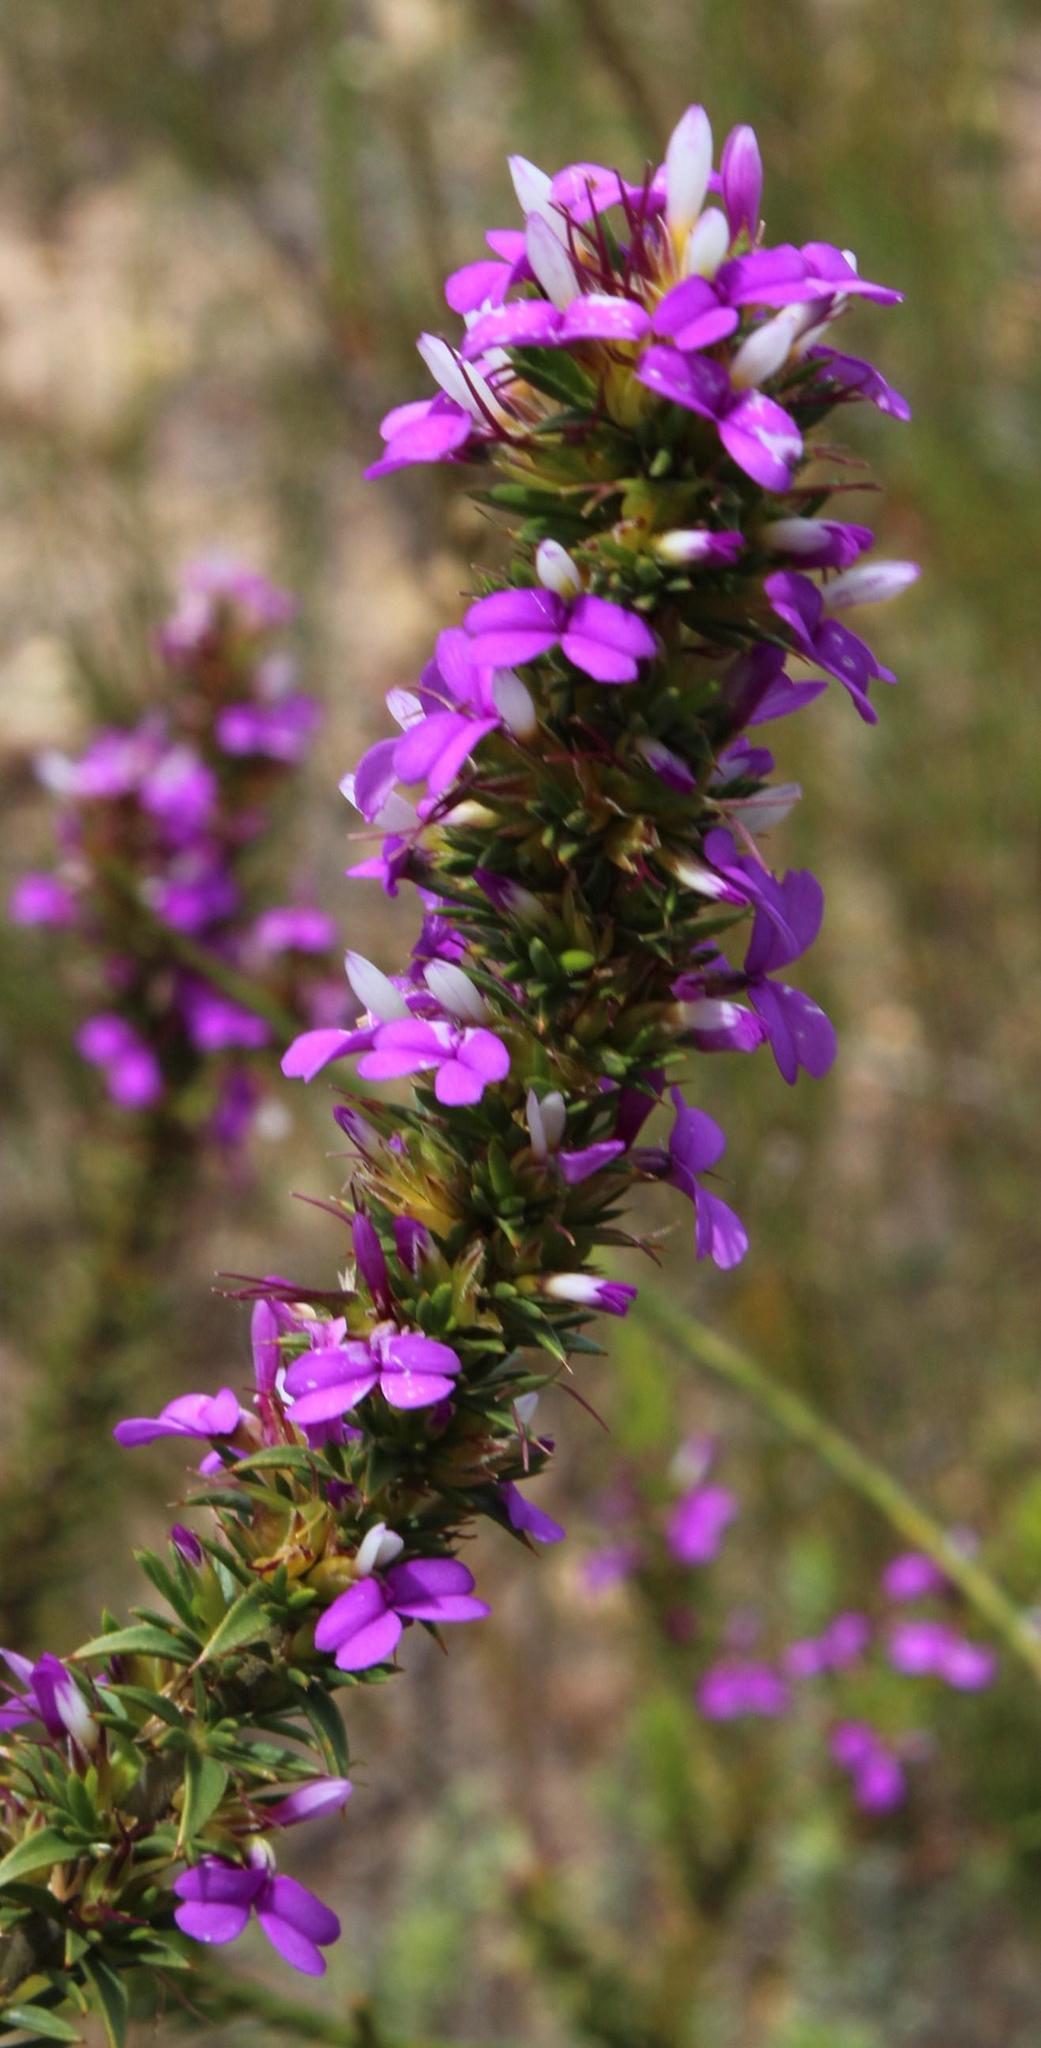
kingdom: Plantae
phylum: Tracheophyta
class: Magnoliopsida
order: Fabales
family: Polygalaceae
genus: Muraltia
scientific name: Muraltia heisteria
